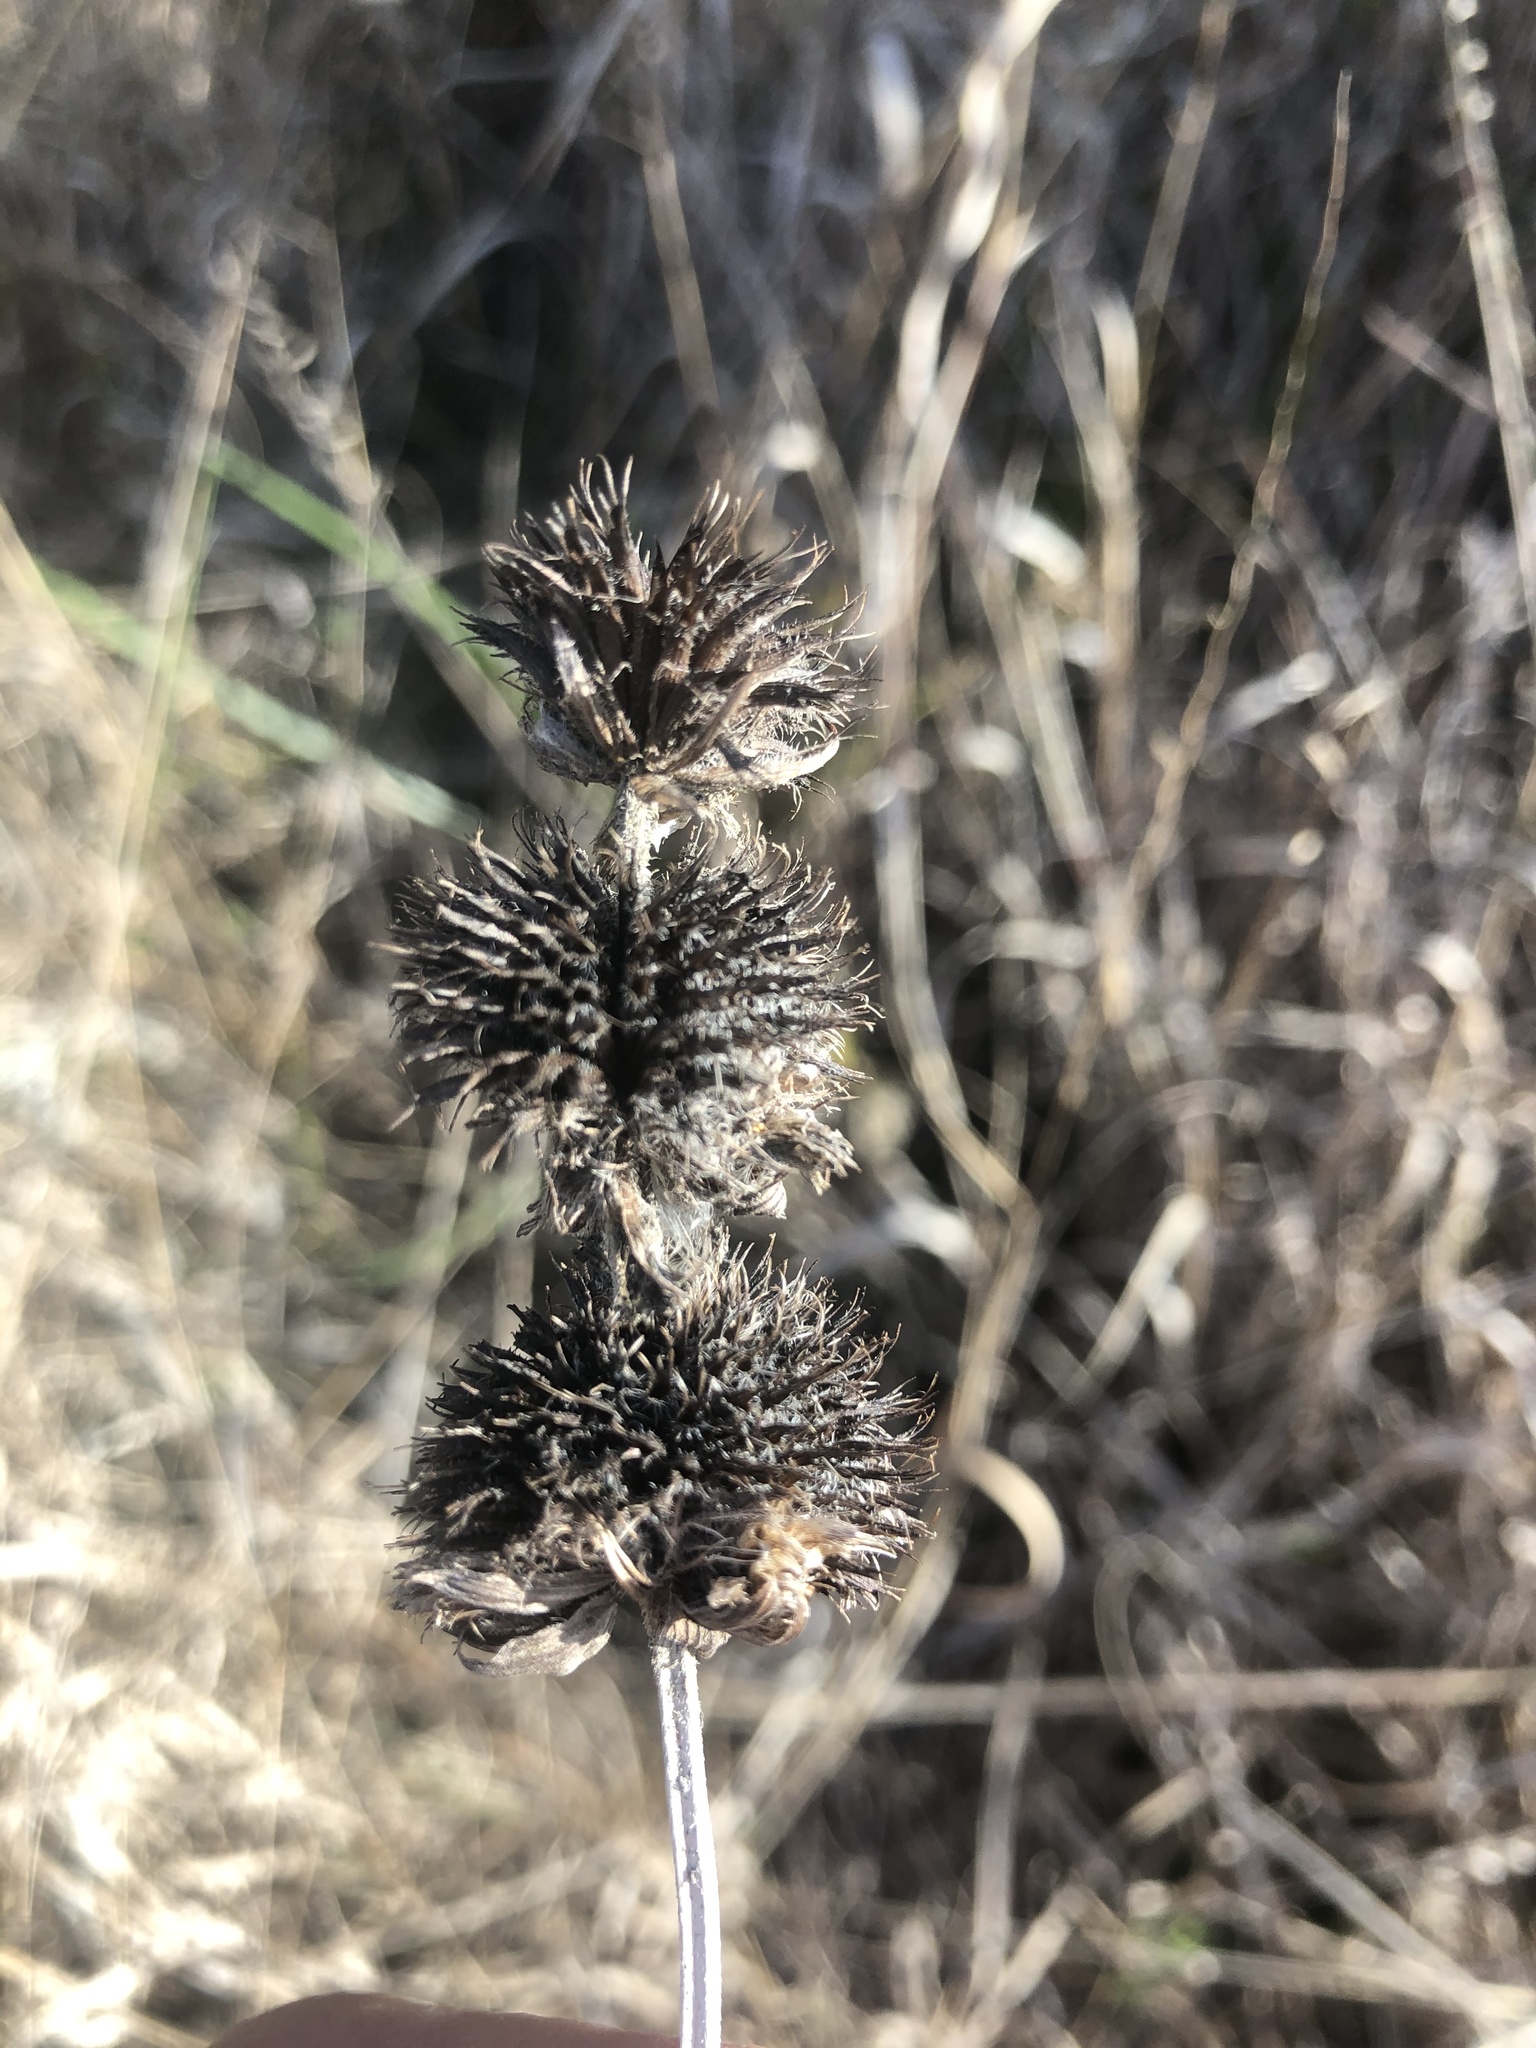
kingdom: Plantae
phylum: Tracheophyta
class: Magnoliopsida
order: Lamiales
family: Lamiaceae
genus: Blephilia
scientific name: Blephilia ciliata
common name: Downy blephilia
